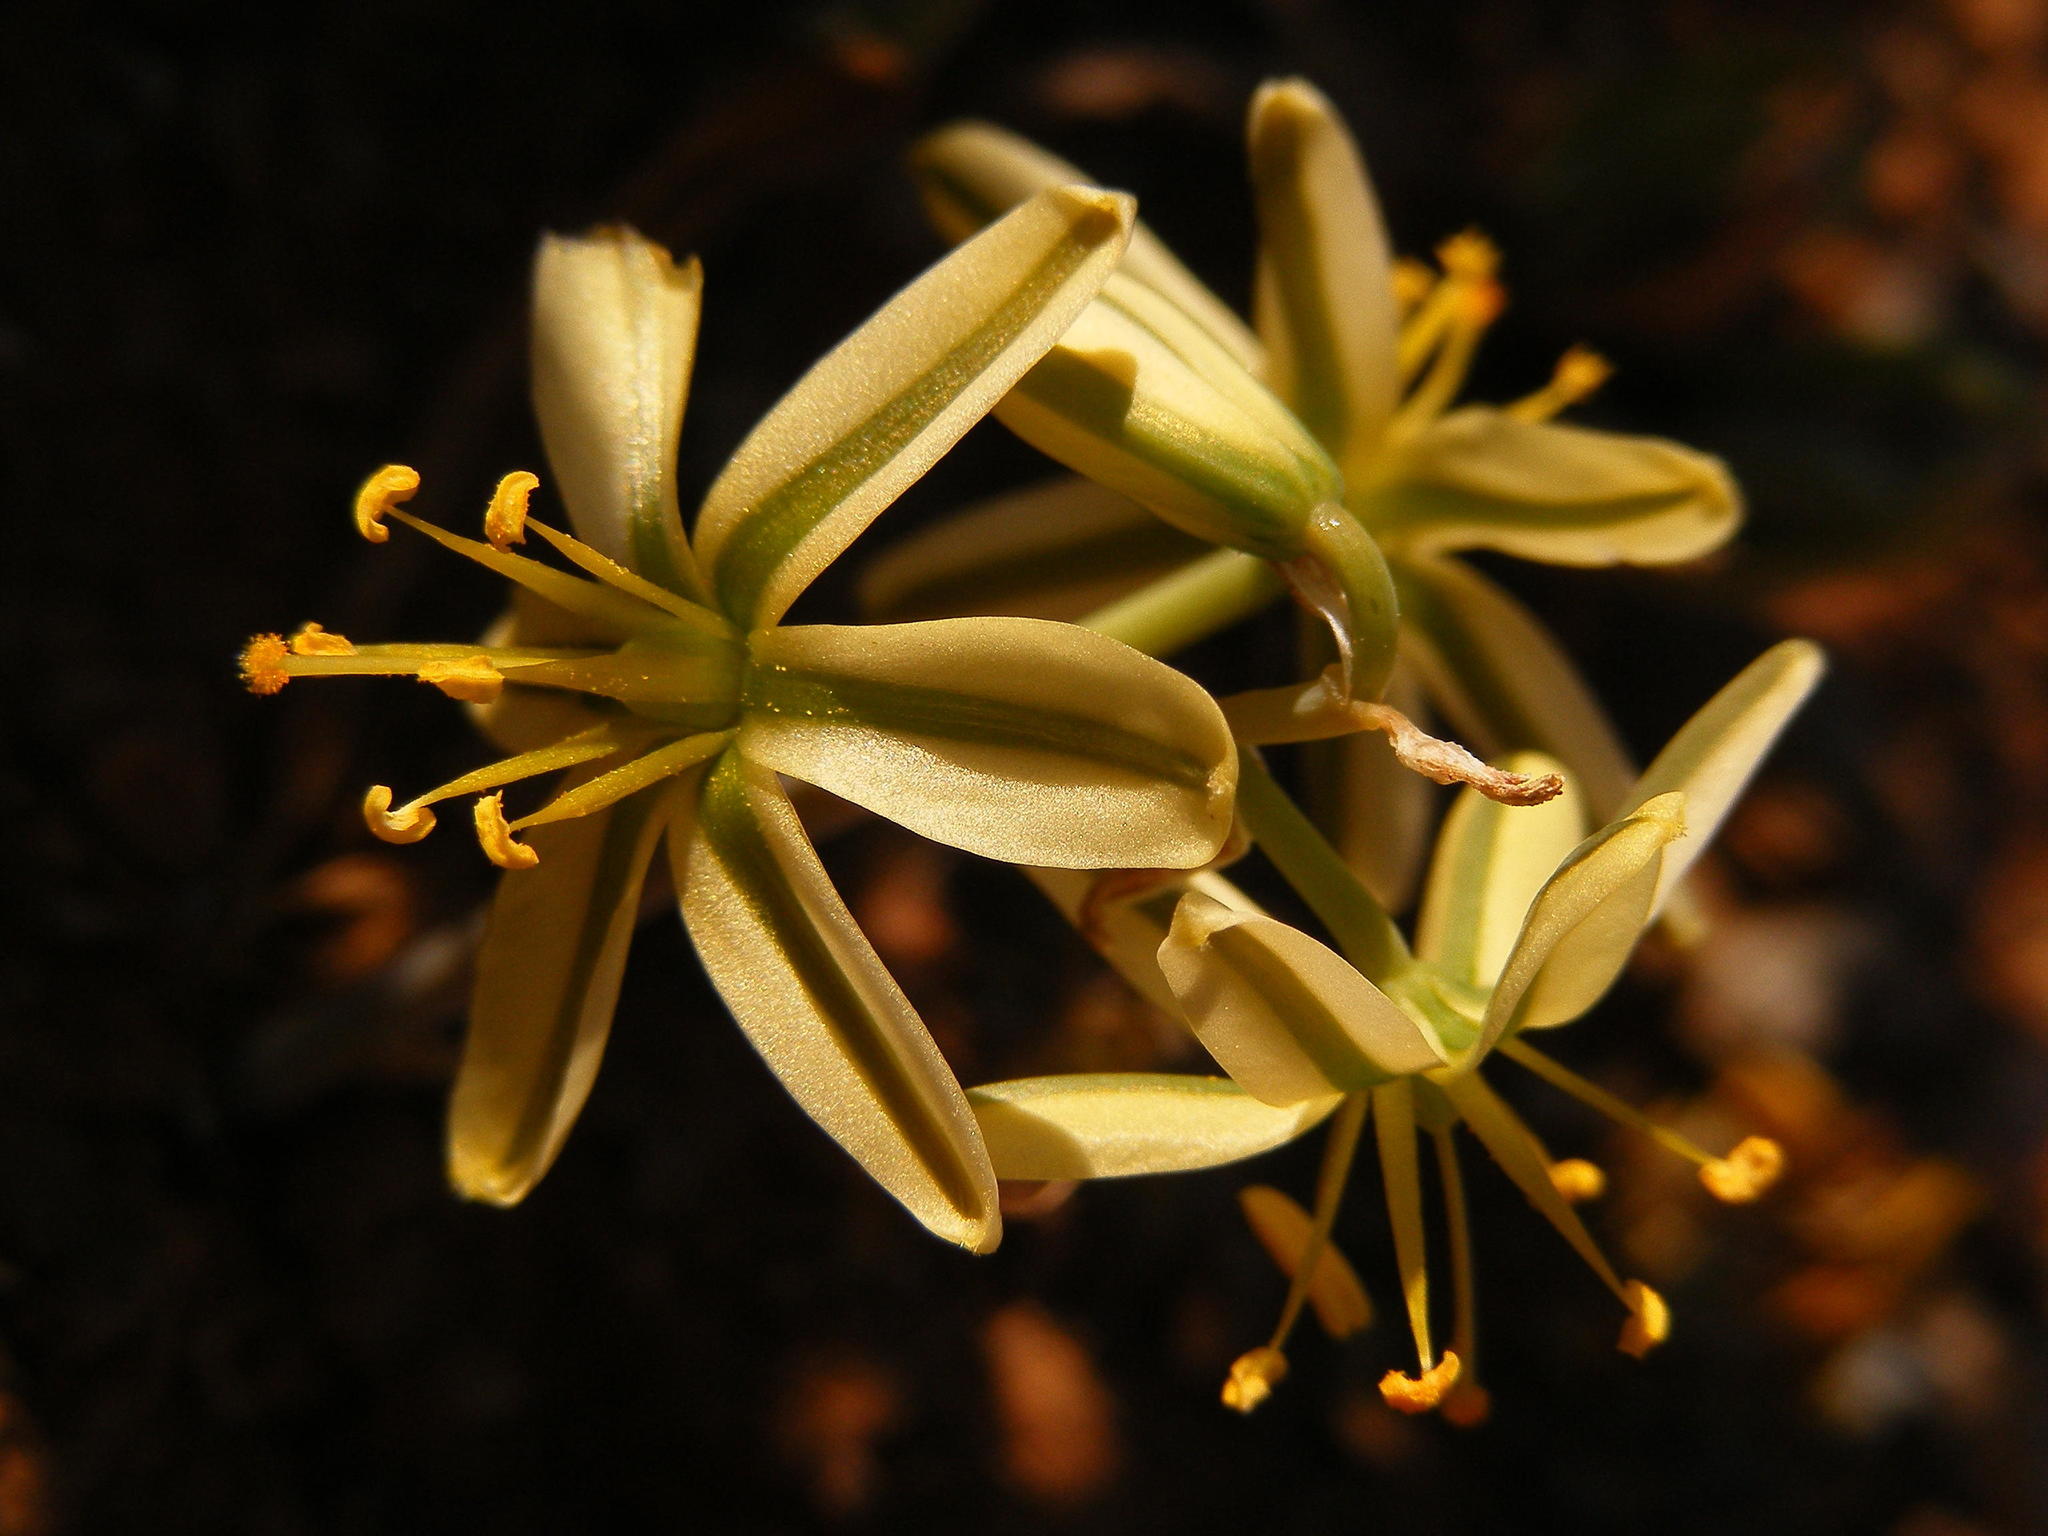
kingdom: Plantae
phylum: Tracheophyta
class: Liliopsida
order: Asparagales
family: Asparagaceae
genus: Albuca
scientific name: Albuca scabrocostata
